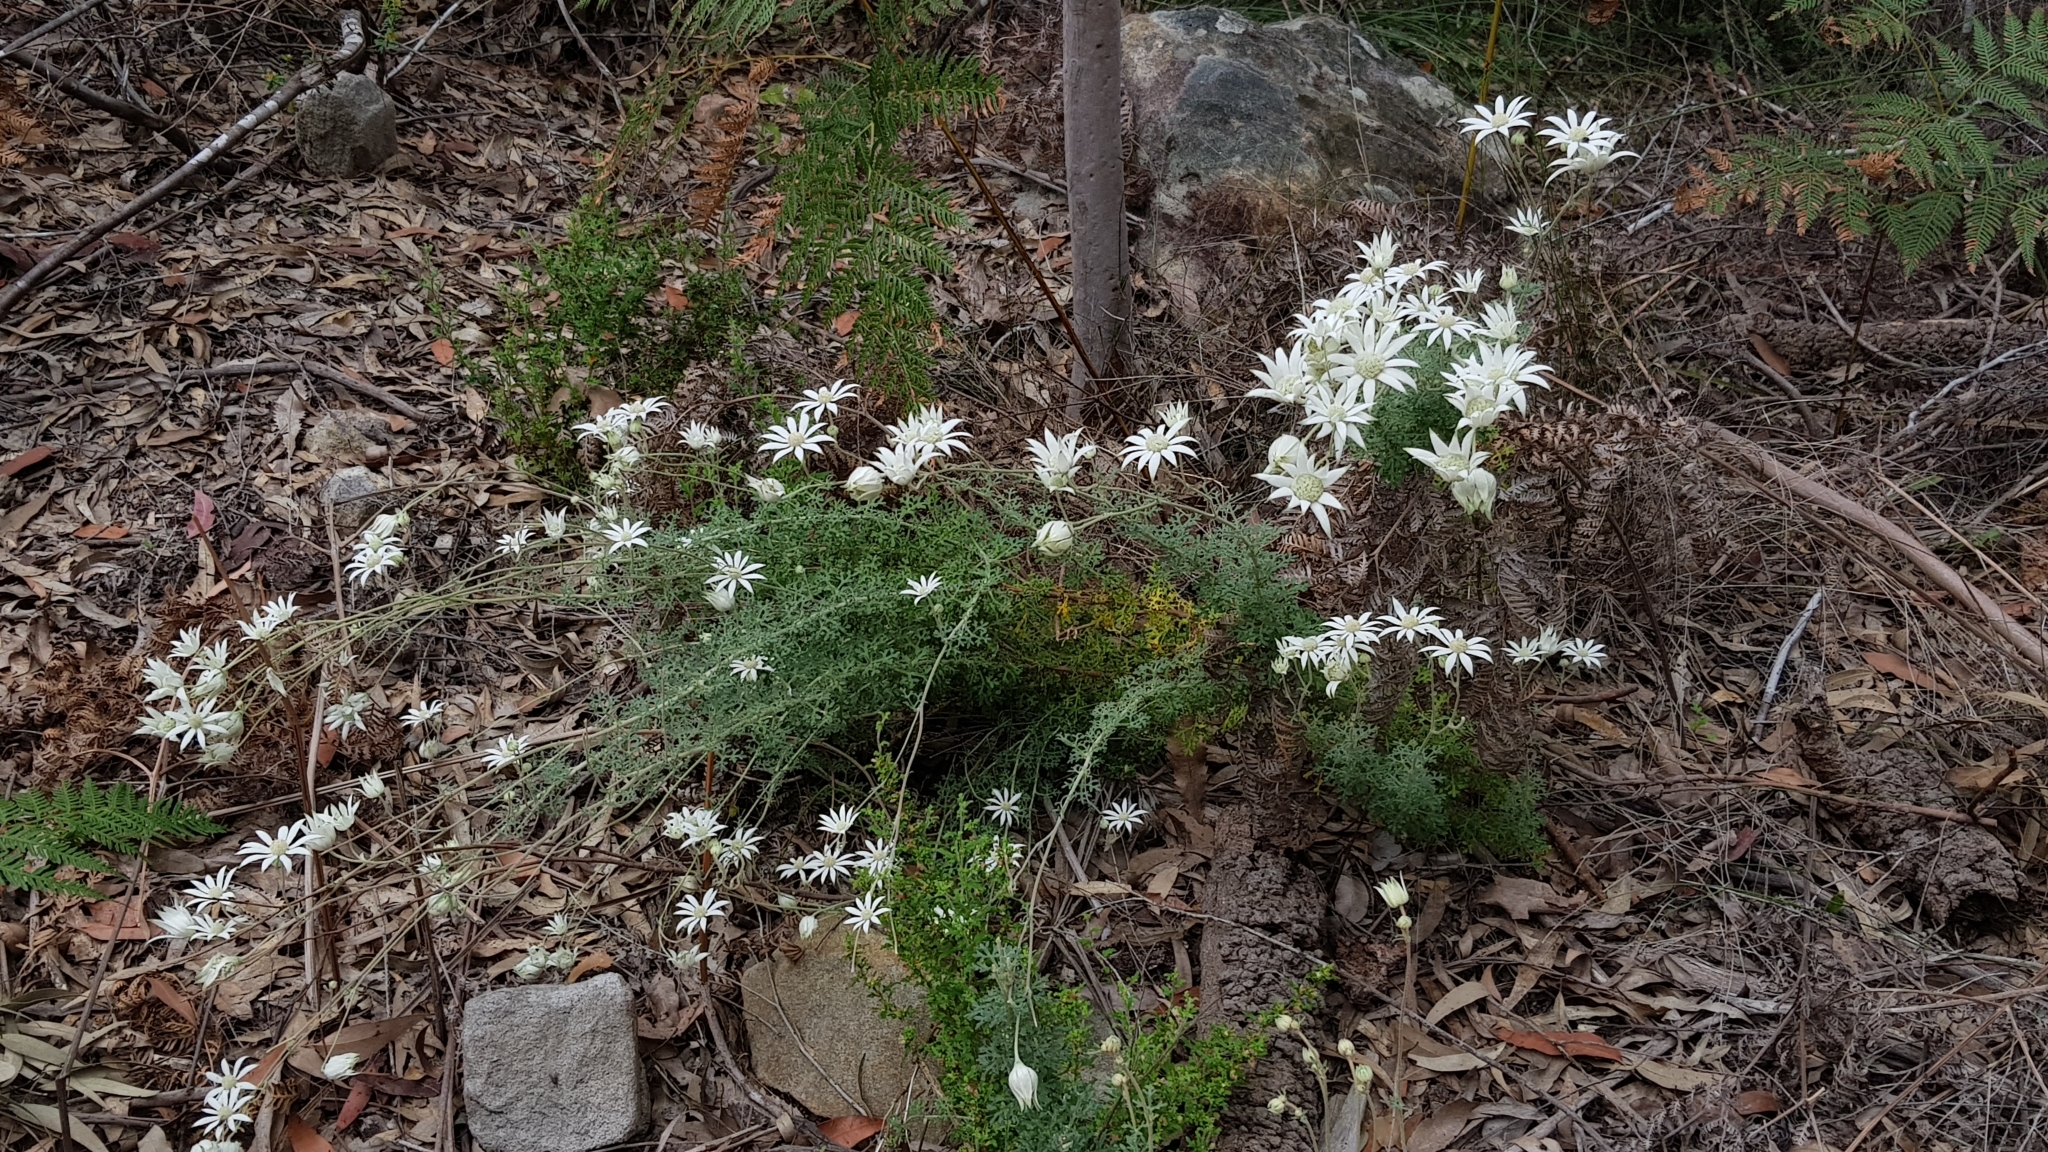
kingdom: Plantae
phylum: Tracheophyta
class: Magnoliopsida
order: Apiales
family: Apiaceae
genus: Actinotus
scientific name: Actinotus helianthi
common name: Flannel-flower
